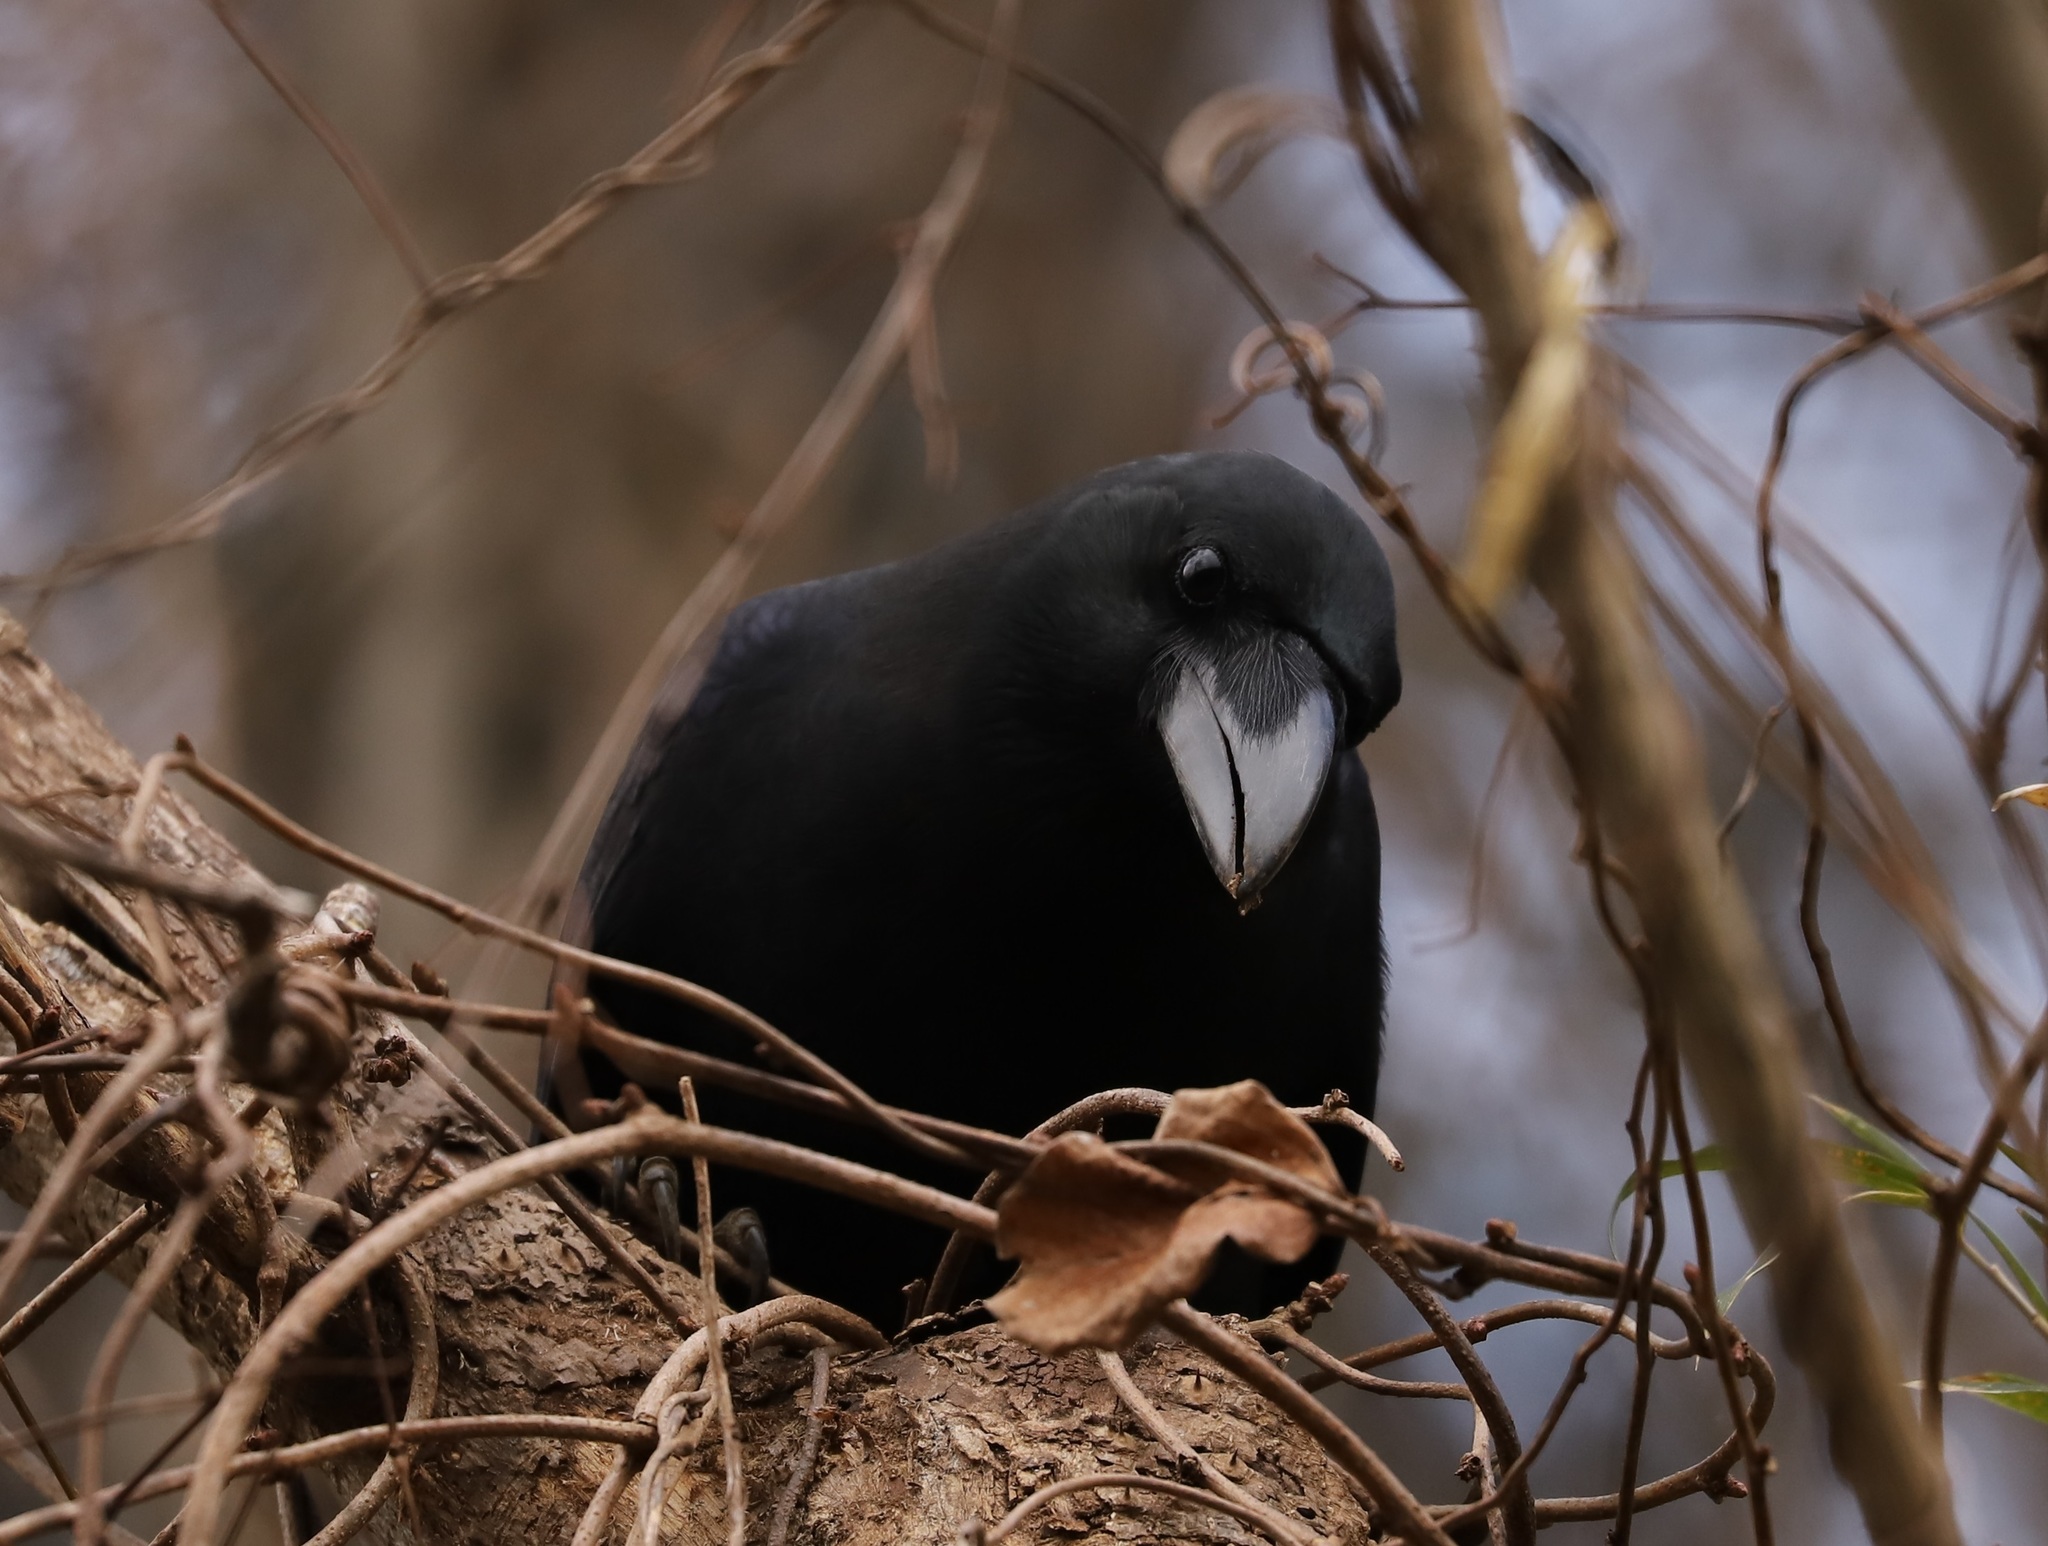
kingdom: Animalia
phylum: Chordata
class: Aves
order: Passeriformes
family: Corvidae
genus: Corvus
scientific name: Corvus macrorhynchos
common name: Large-billed crow
